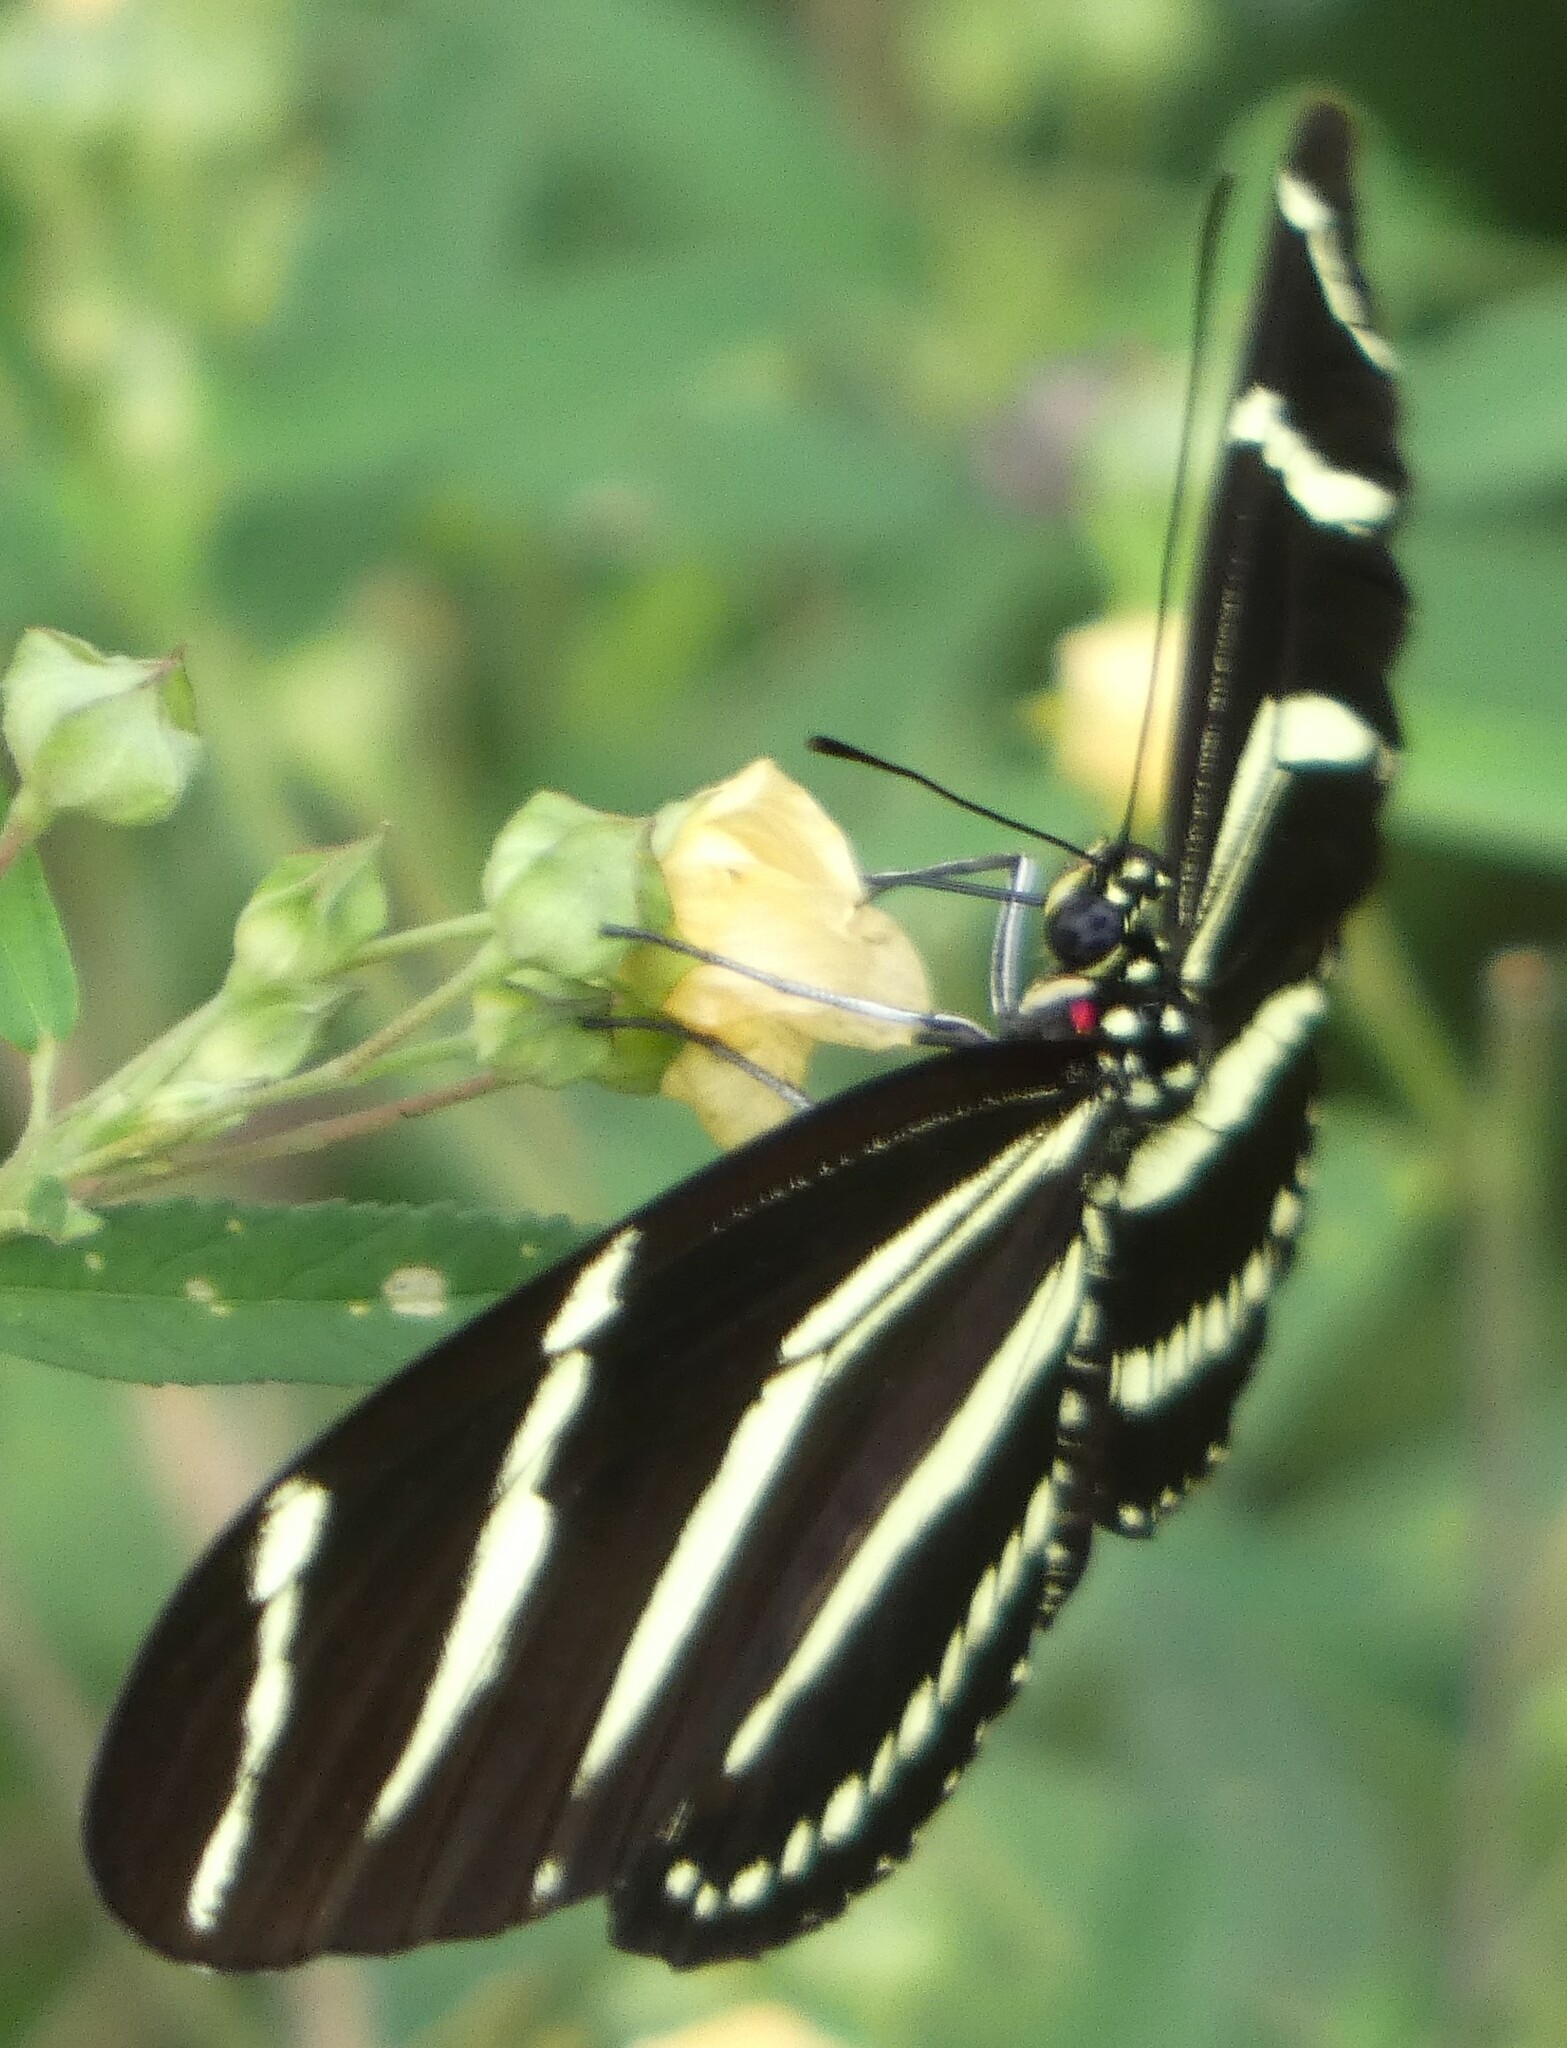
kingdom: Animalia
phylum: Arthropoda
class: Insecta
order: Lepidoptera
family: Nymphalidae
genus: Heliconius
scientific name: Heliconius charithonia
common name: Zebra long wing
